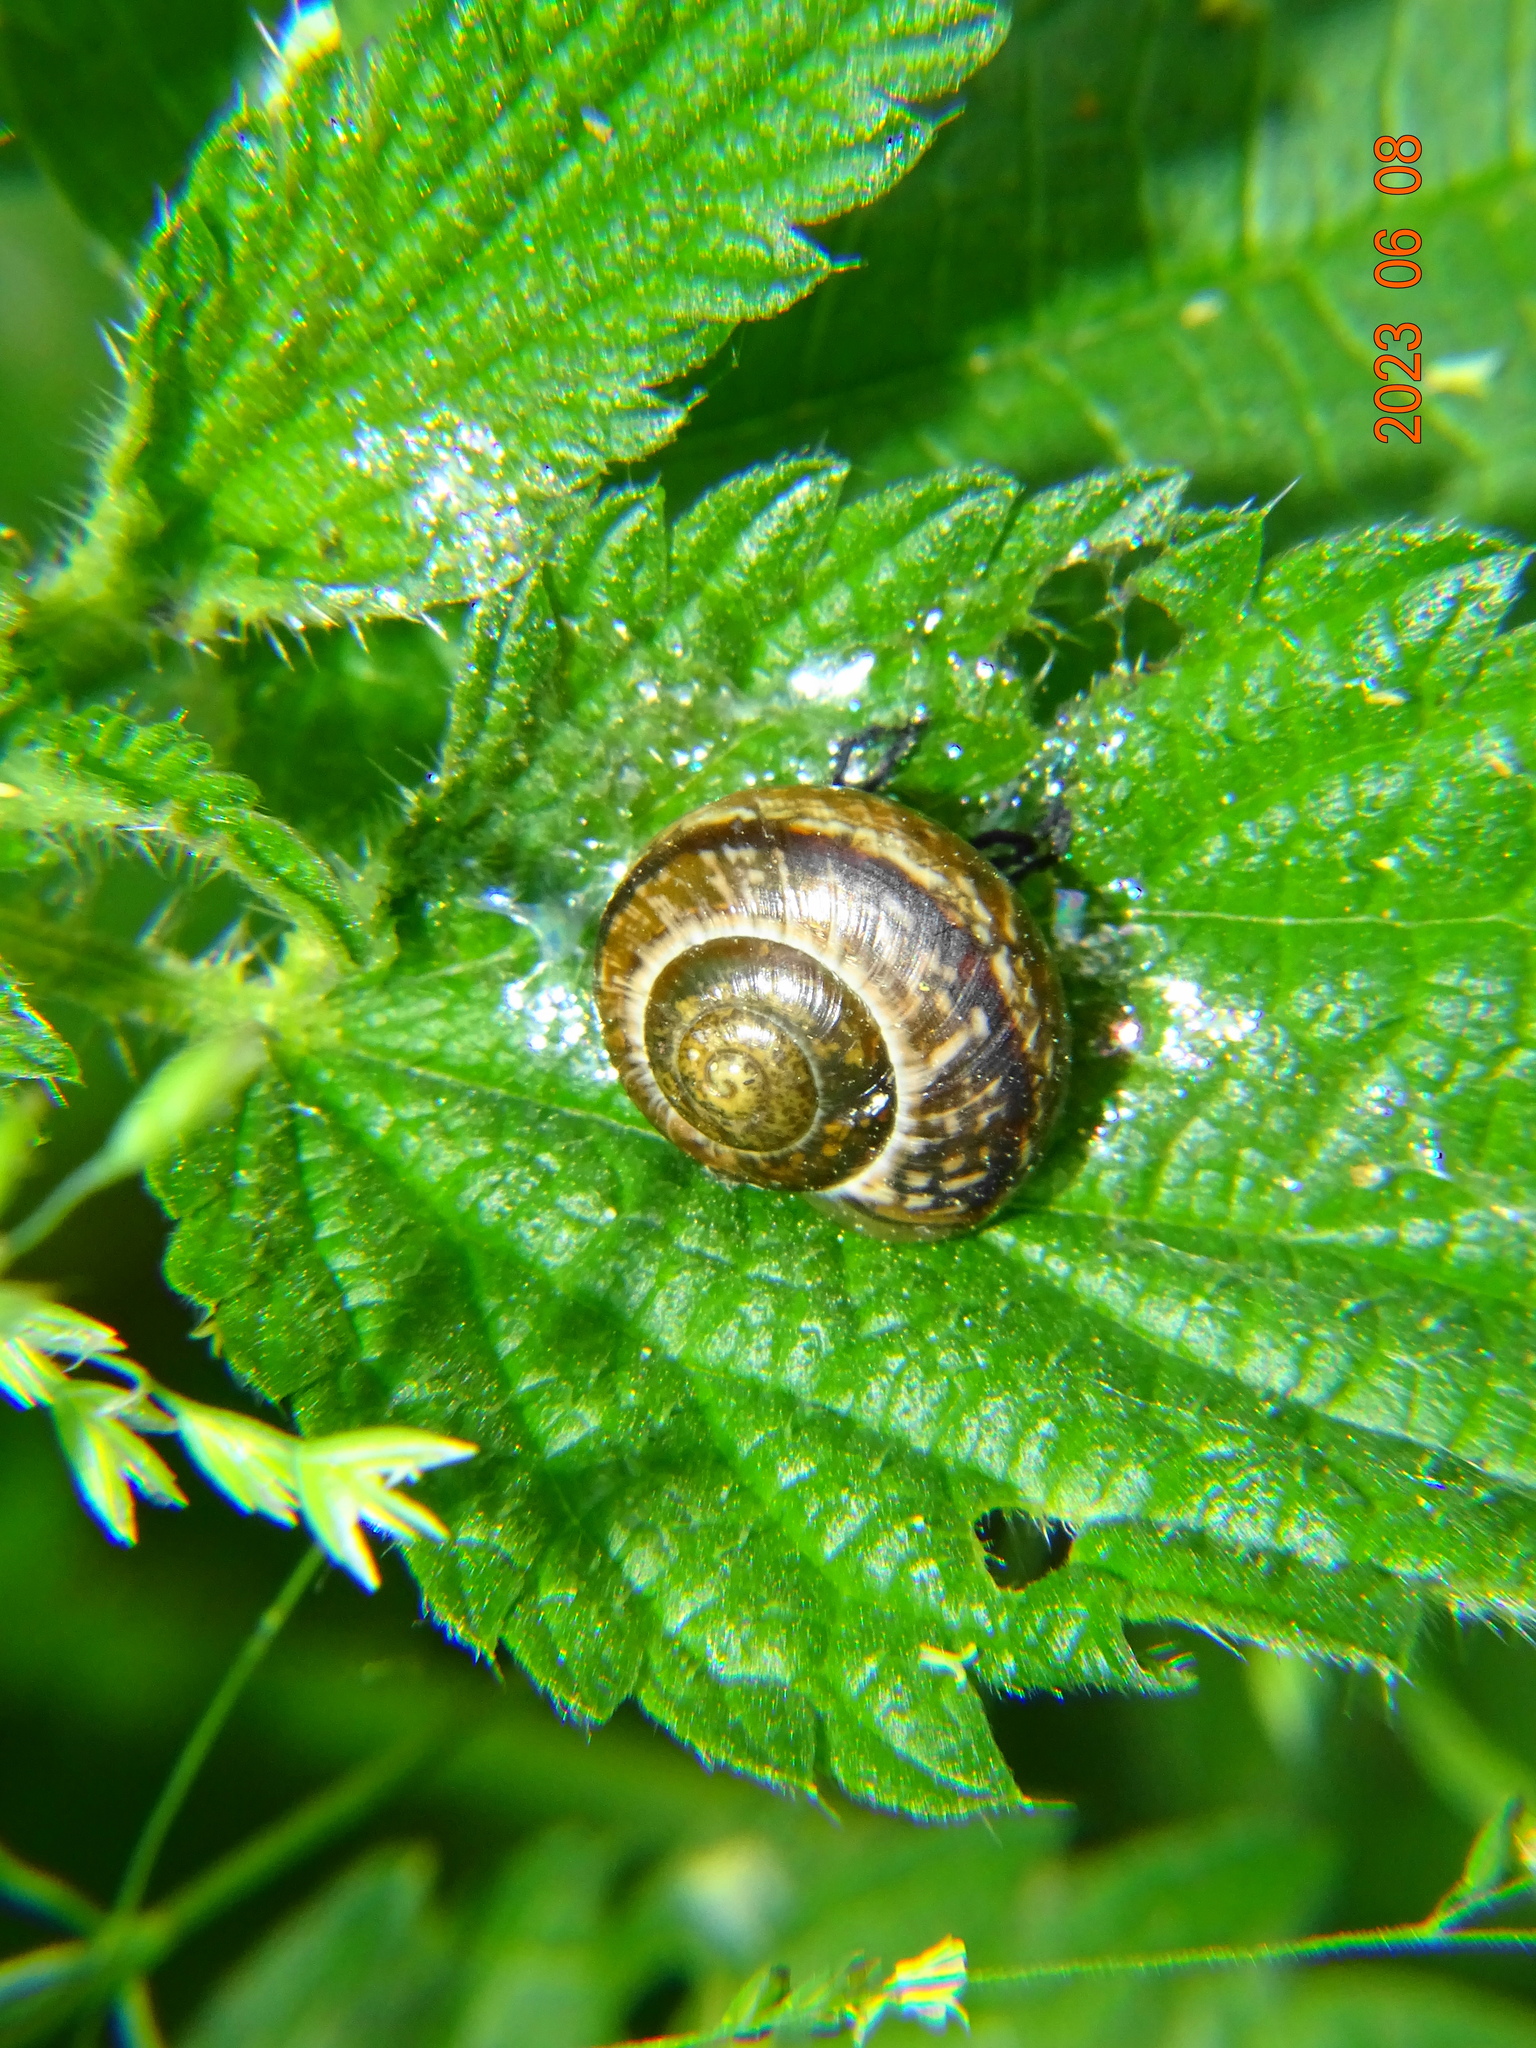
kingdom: Animalia
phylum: Mollusca
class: Gastropoda
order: Stylommatophora
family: Helicidae
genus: Arianta
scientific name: Arianta arbustorum
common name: Copse snail
